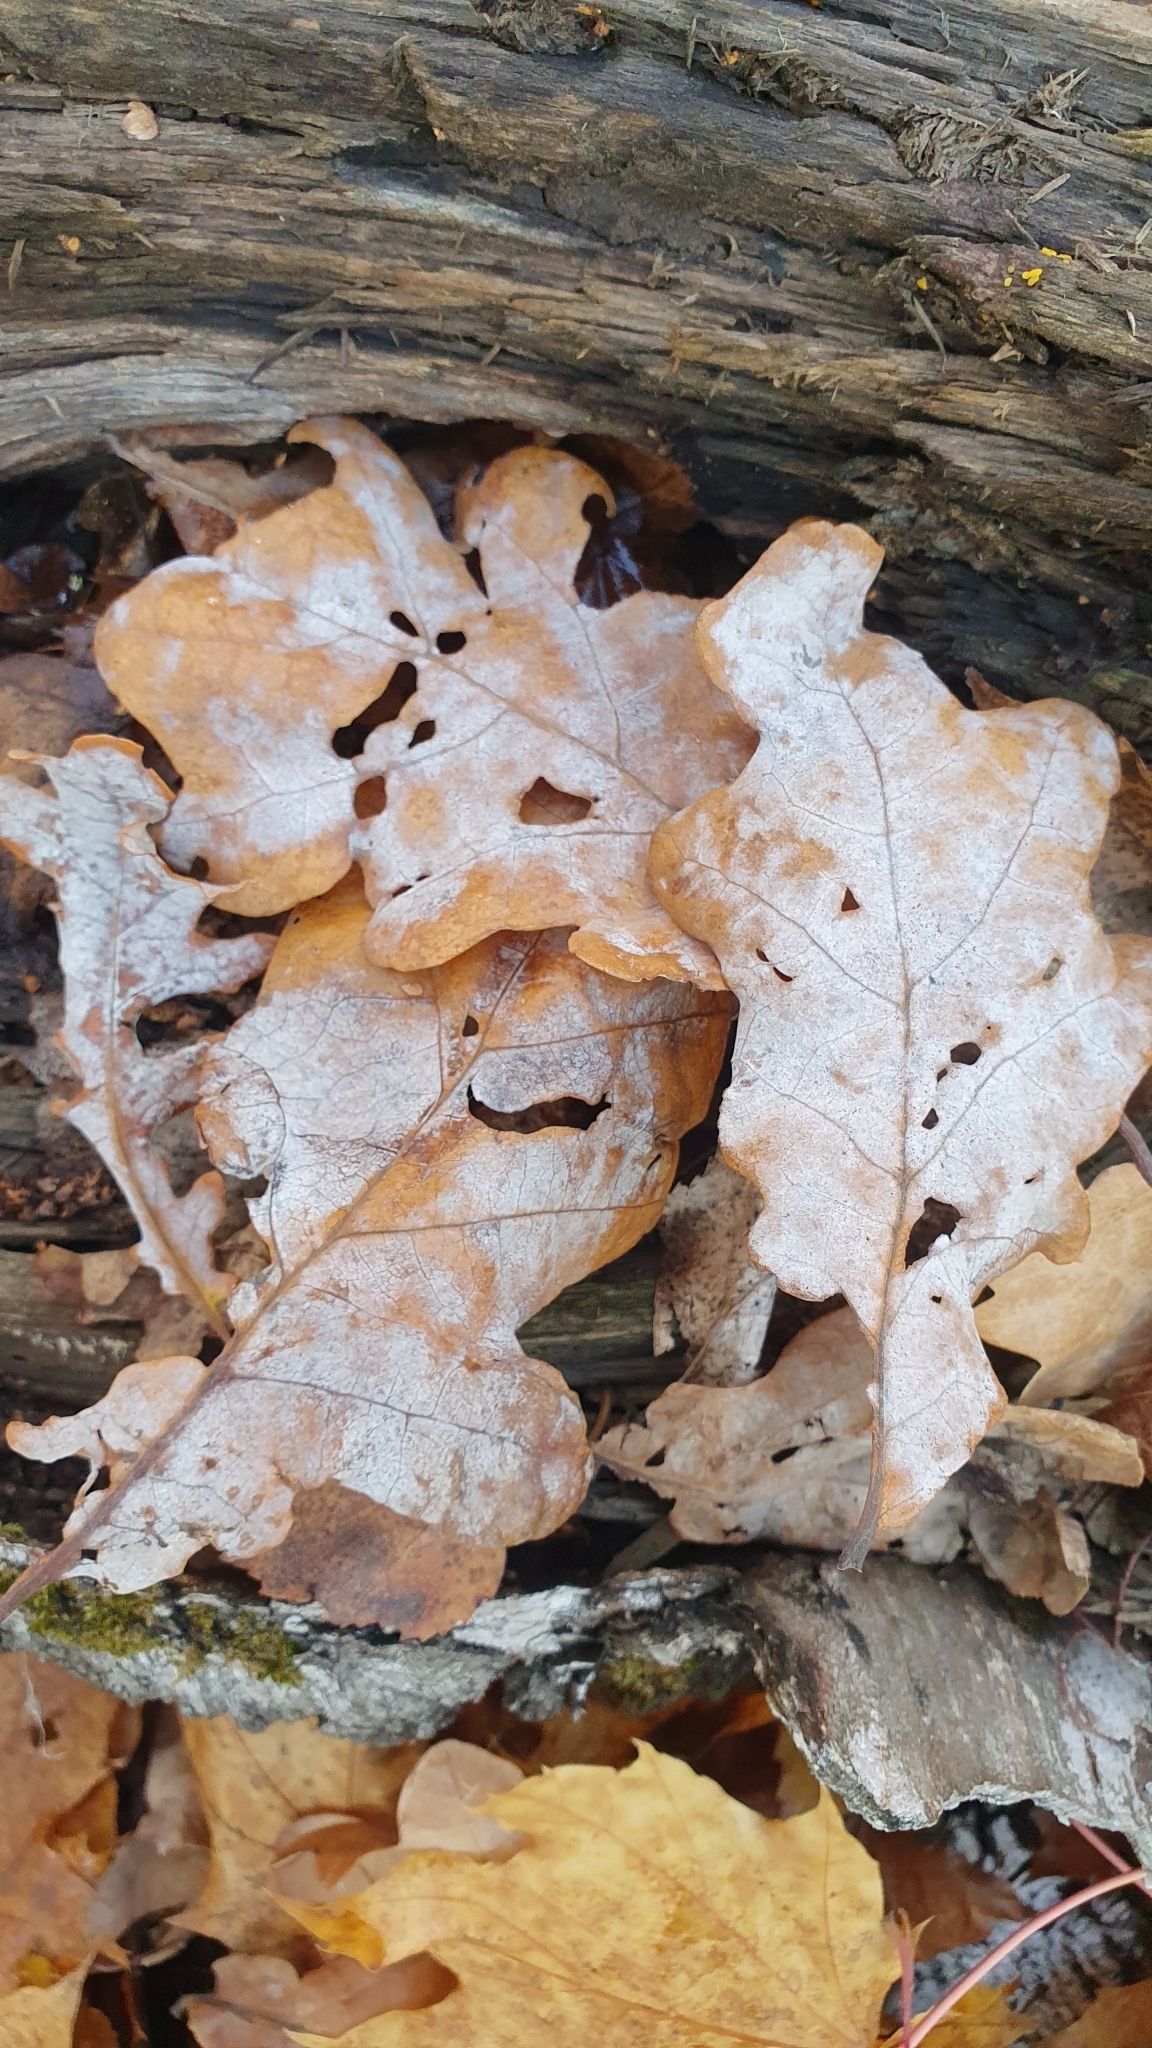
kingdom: Fungi
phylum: Ascomycota
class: Leotiomycetes
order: Helotiales
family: Erysiphaceae
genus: Erysiphe
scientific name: Erysiphe alphitoides
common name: Oak mildew
